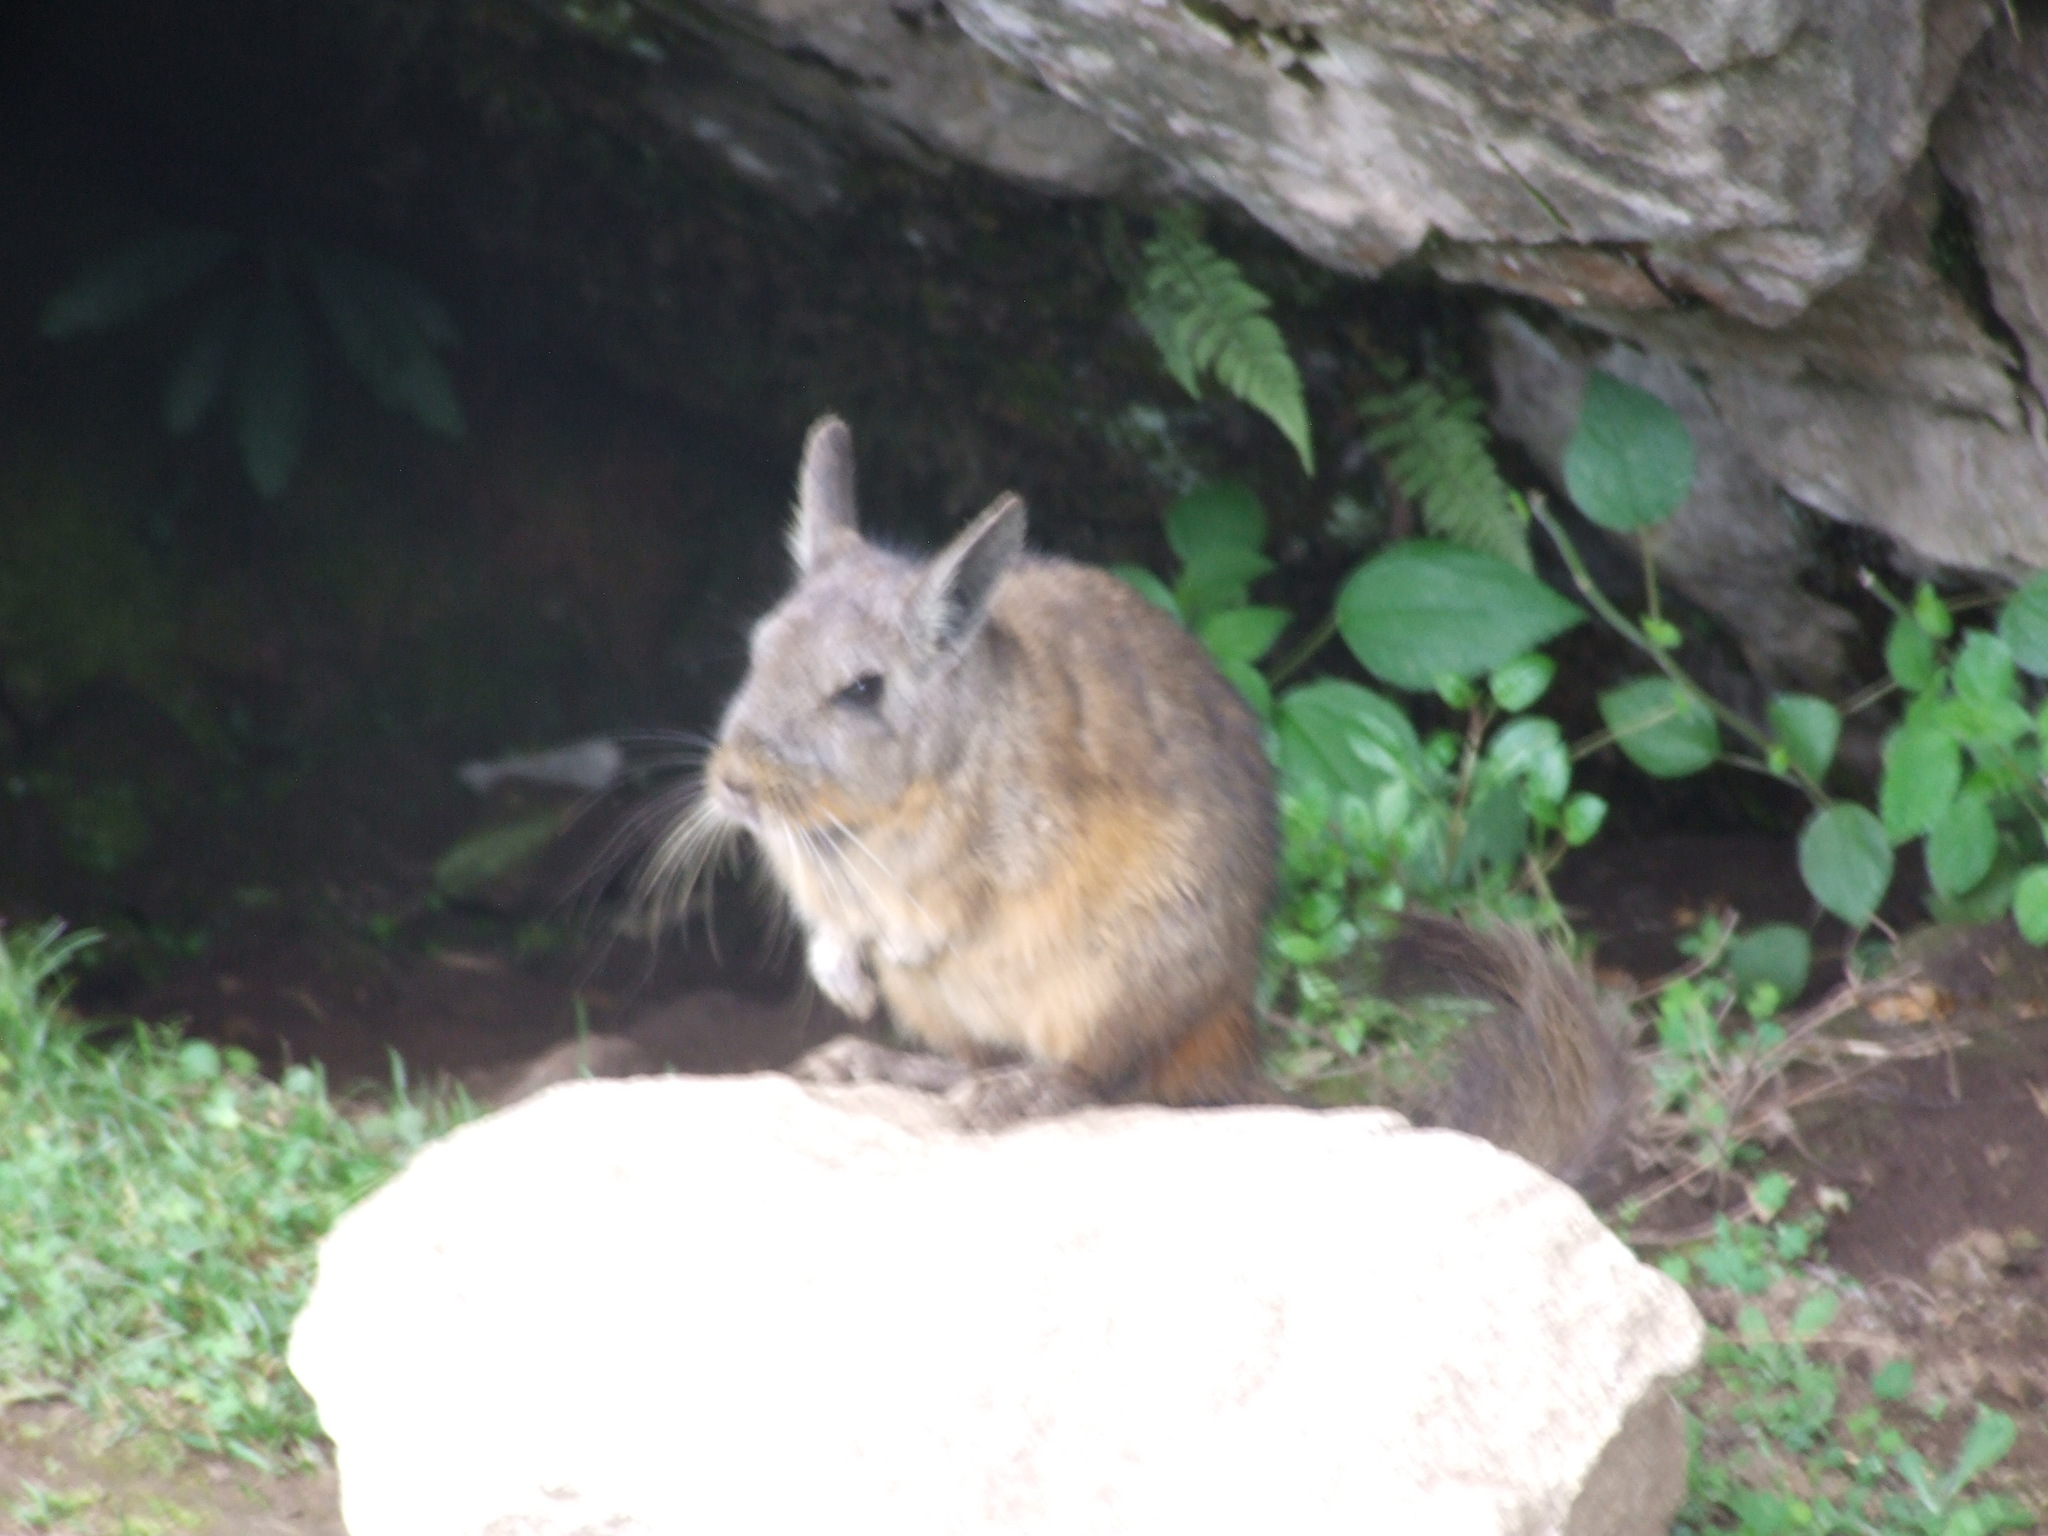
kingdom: Animalia
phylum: Chordata
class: Mammalia
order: Rodentia
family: Chinchillidae
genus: Lagidium
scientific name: Lagidium viscacia
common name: Southern viscacha
